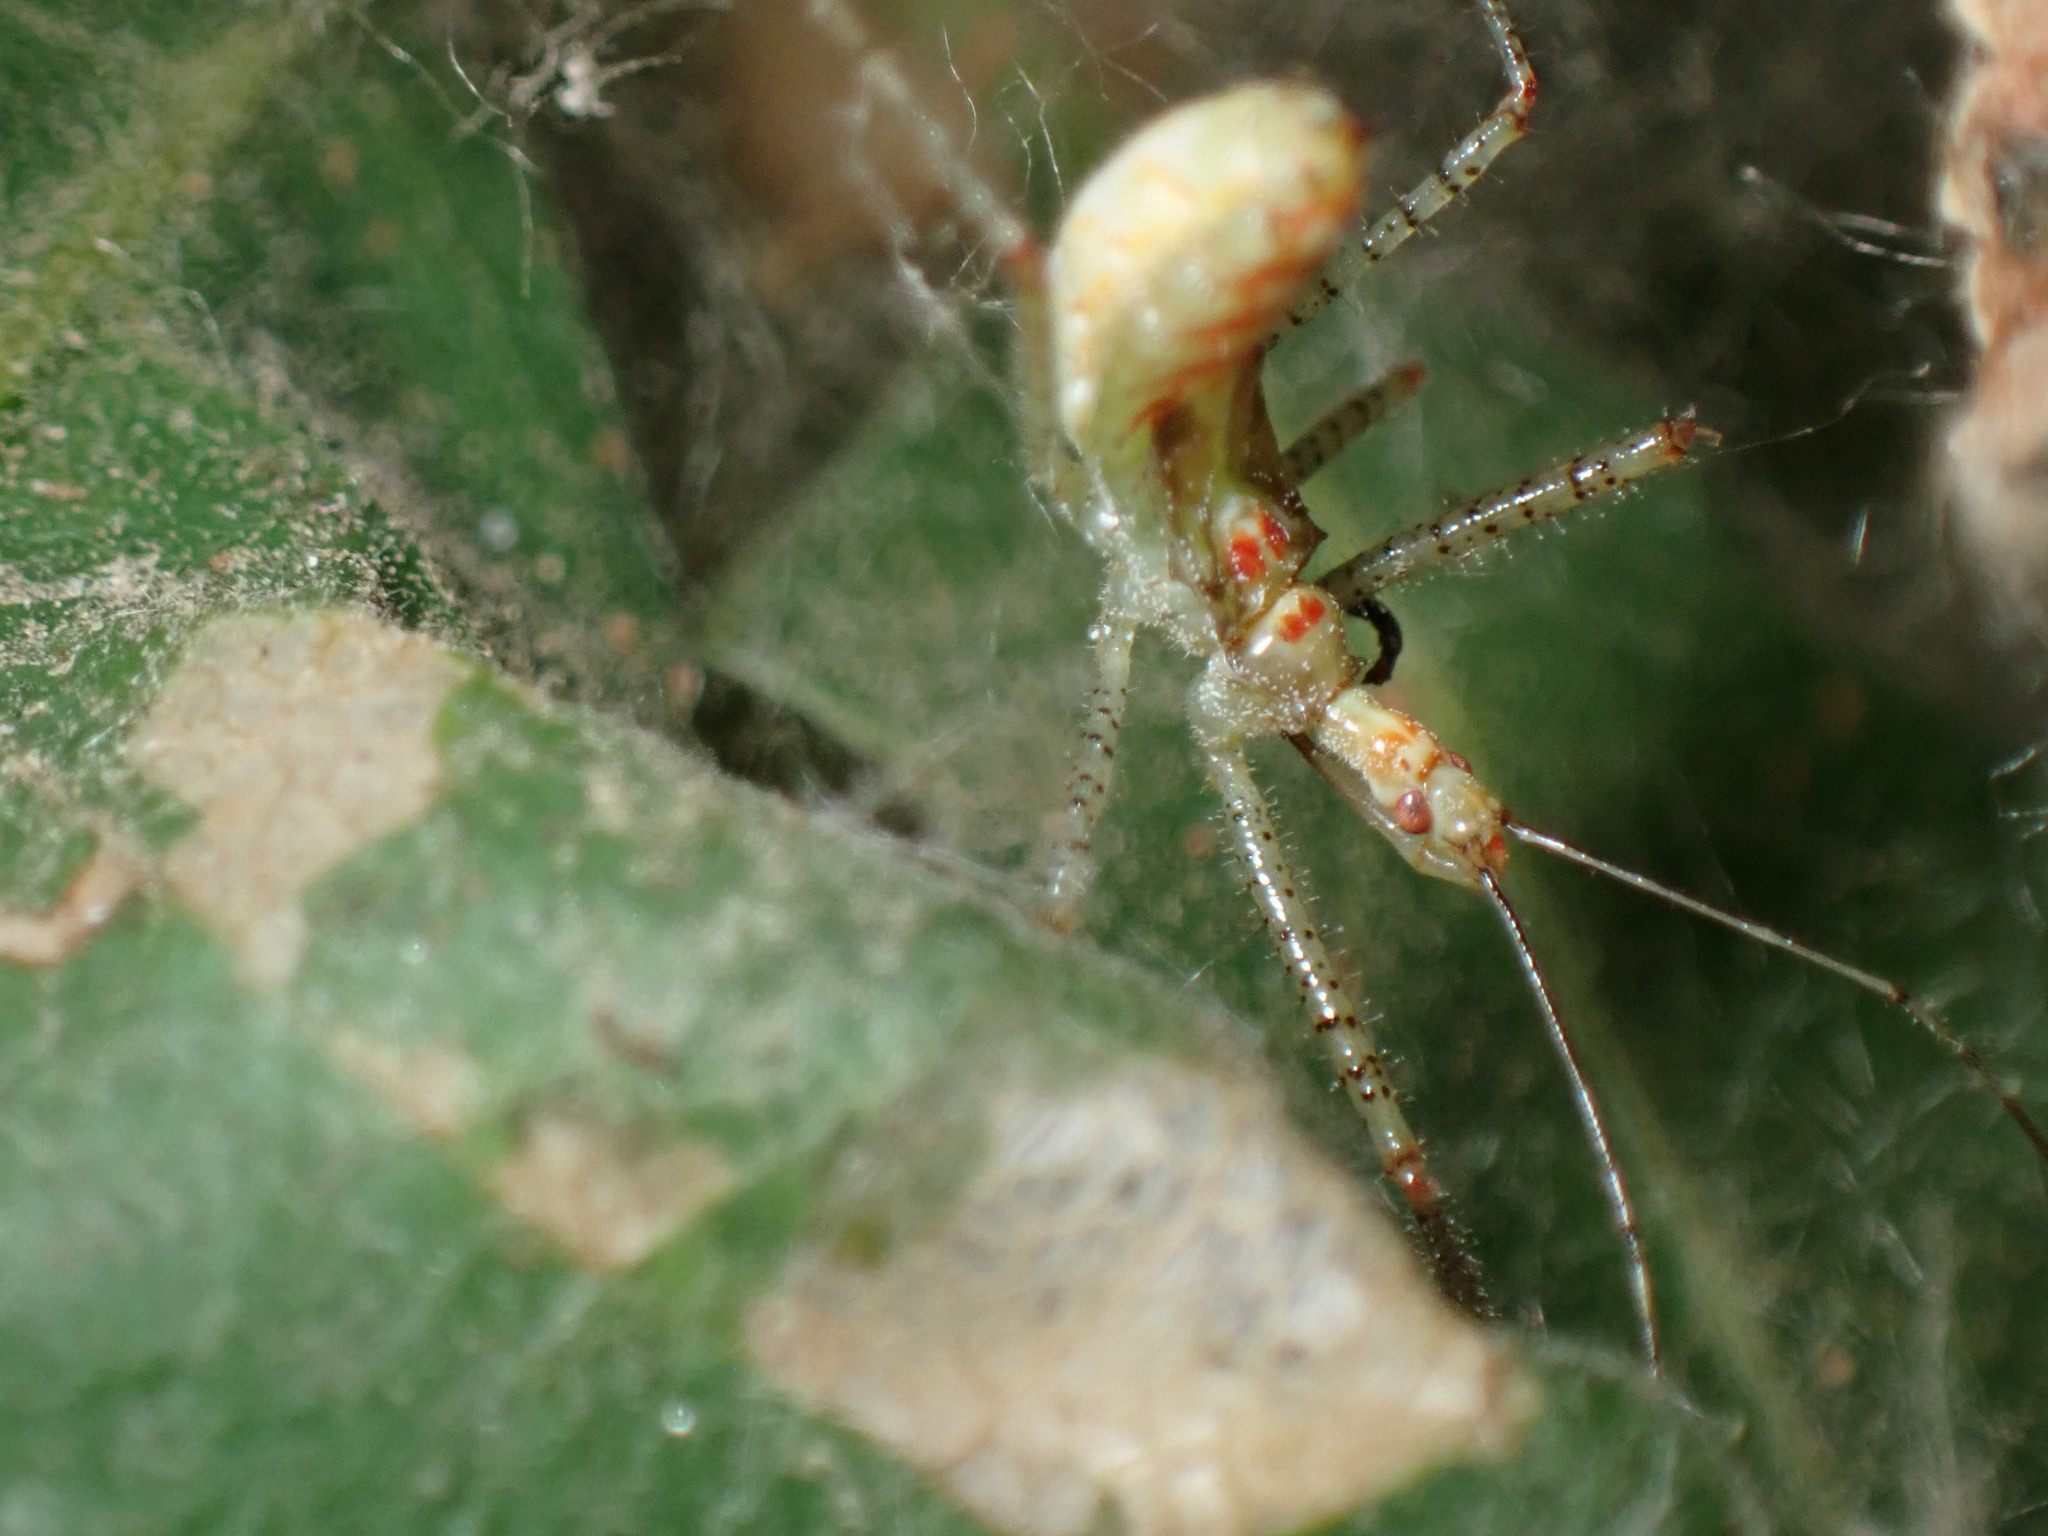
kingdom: Animalia
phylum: Arthropoda
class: Insecta
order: Hemiptera
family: Reduviidae
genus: Zelus
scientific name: Zelus renardii
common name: Assassin bug
